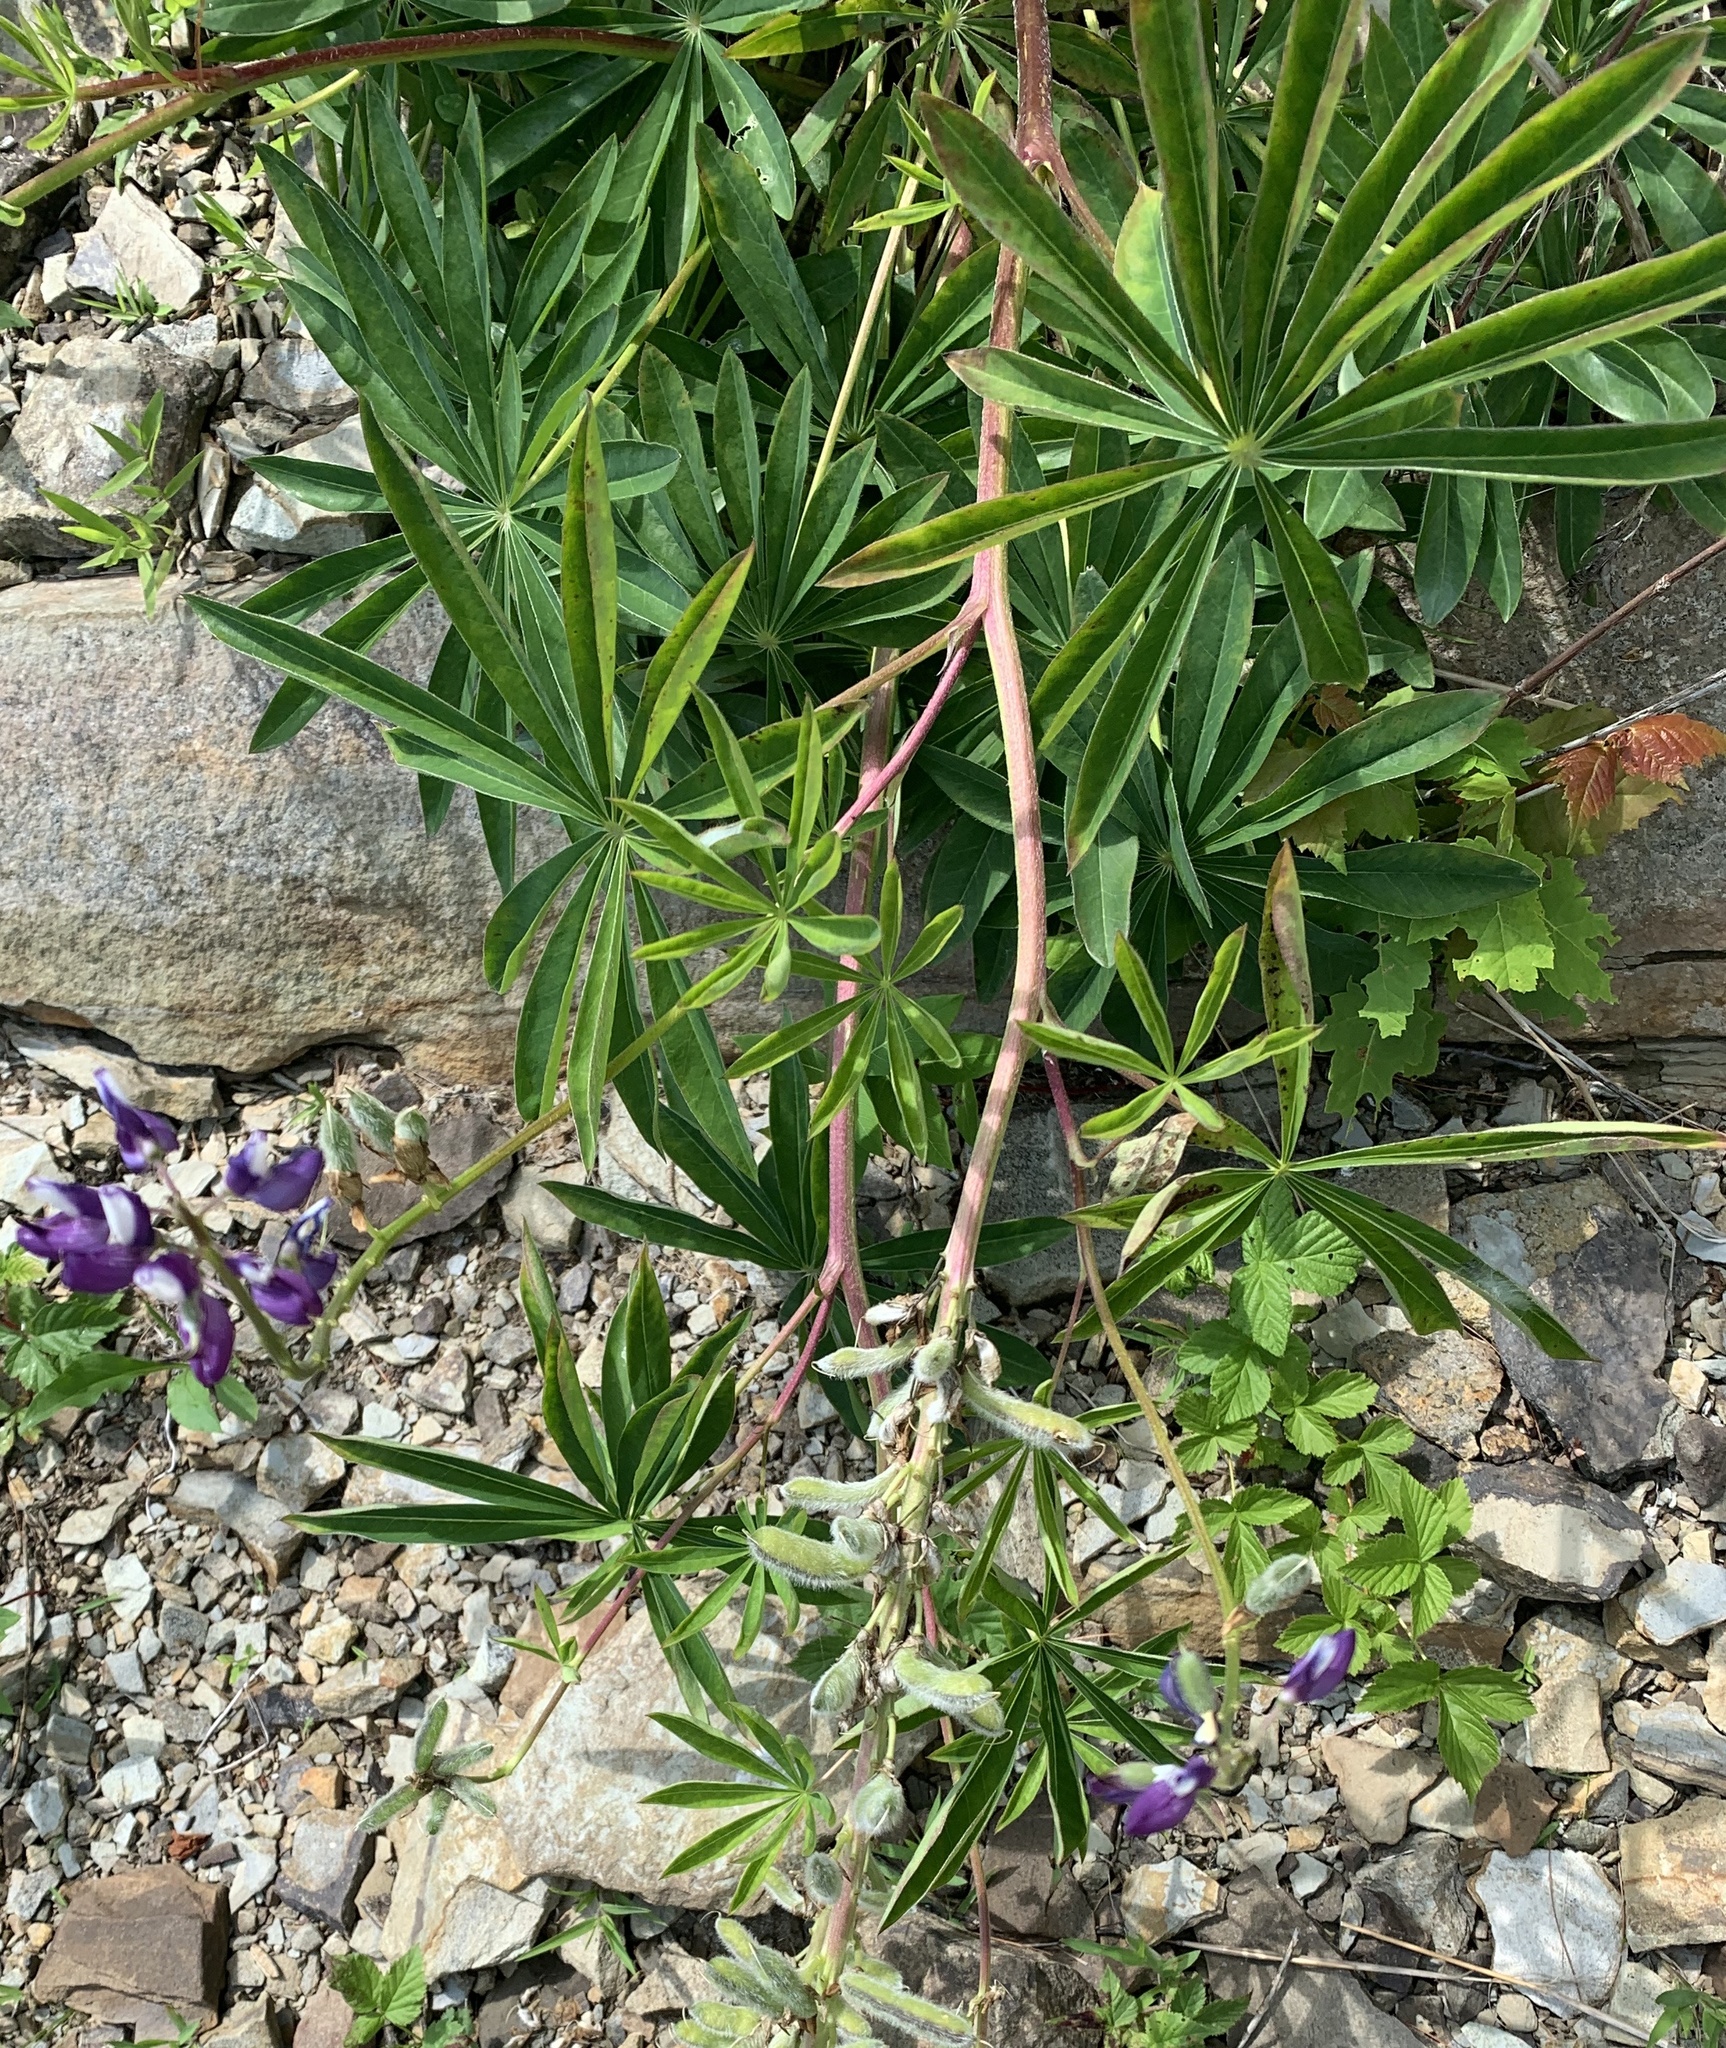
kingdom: Plantae
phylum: Tracheophyta
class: Magnoliopsida
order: Fabales
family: Fabaceae
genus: Lupinus
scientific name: Lupinus polyphyllus
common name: Garden lupin
